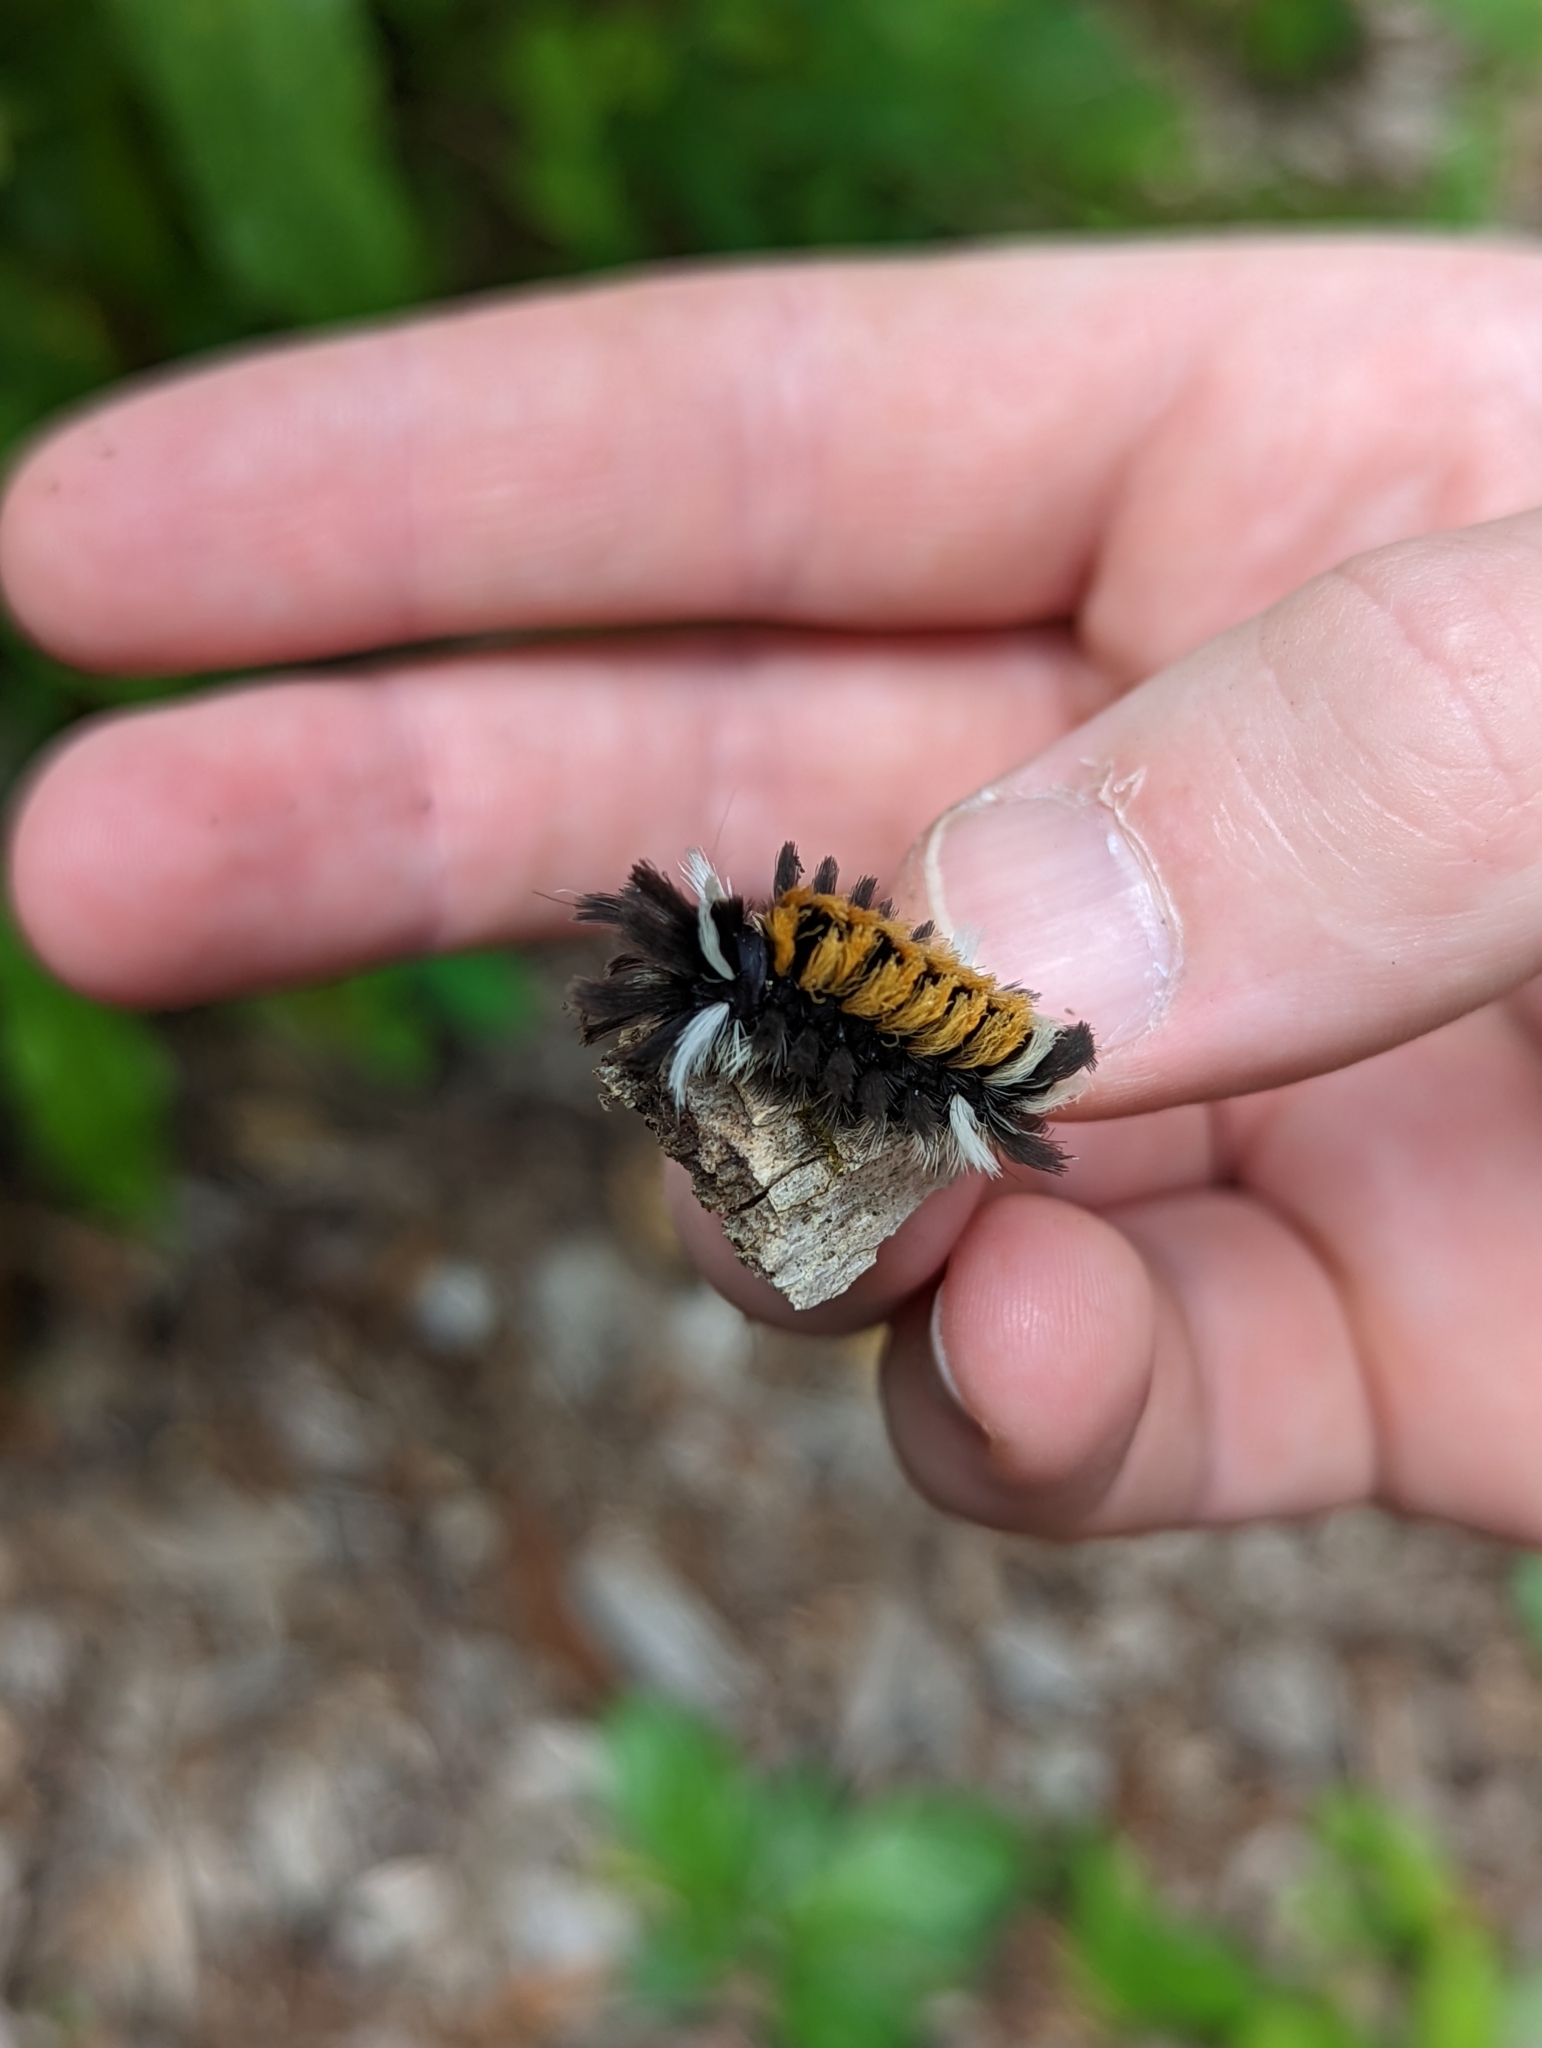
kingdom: Animalia
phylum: Arthropoda
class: Insecta
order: Lepidoptera
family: Erebidae
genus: Euchaetes
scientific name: Euchaetes egle
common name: Milkweed tussock moth
